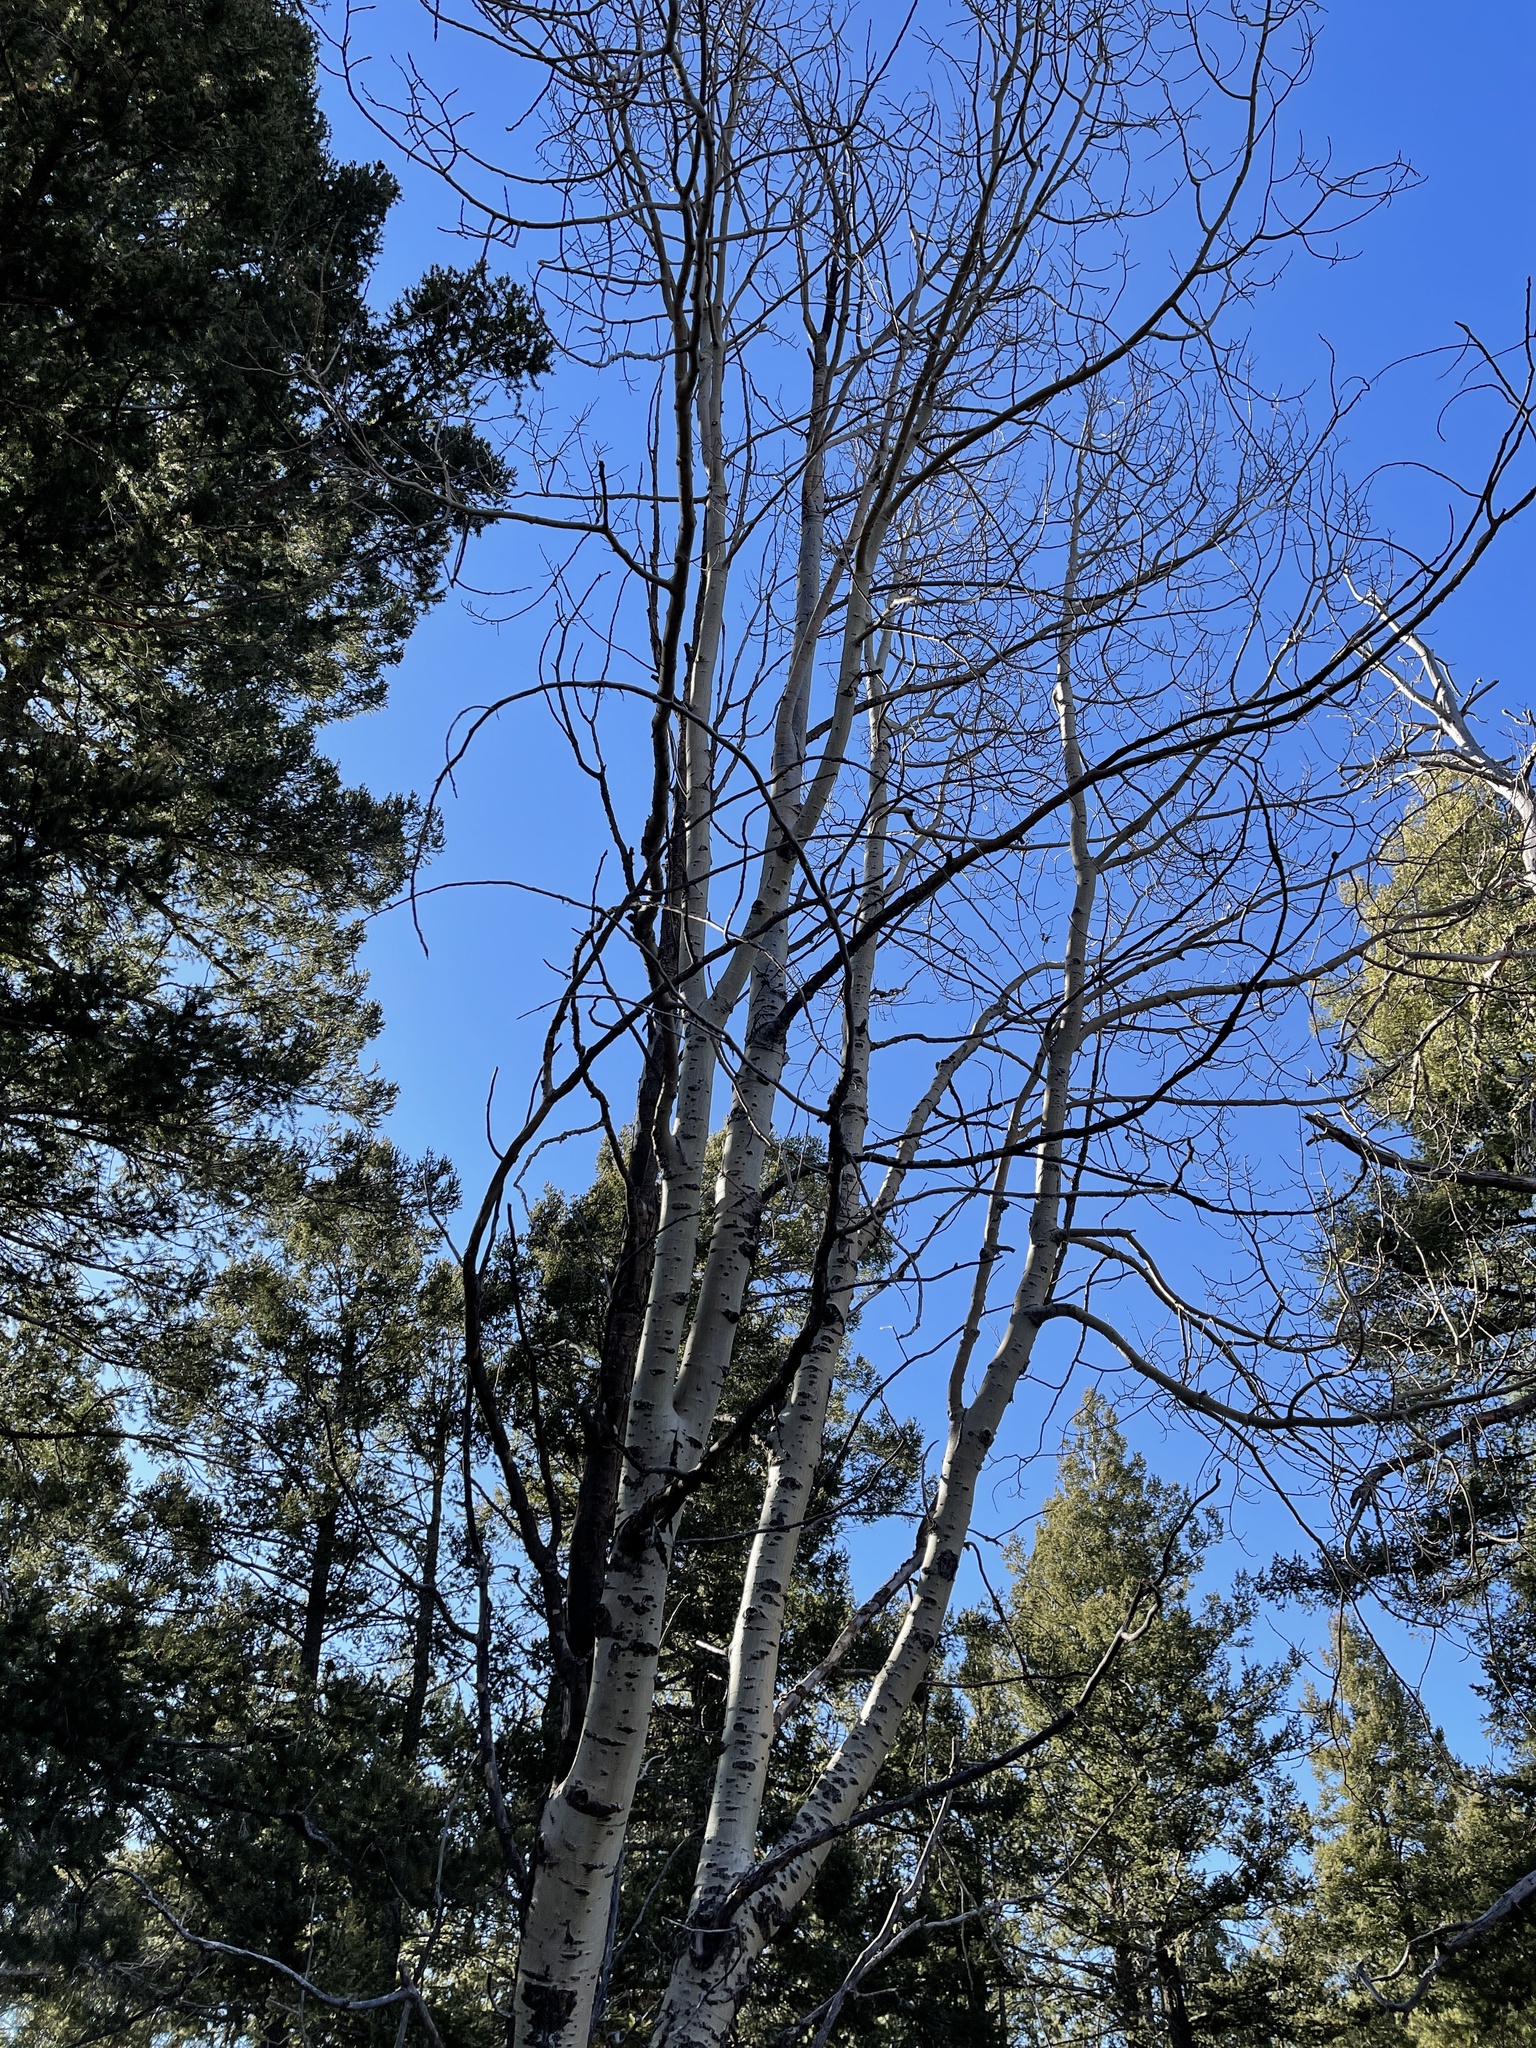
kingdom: Plantae
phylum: Tracheophyta
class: Magnoliopsida
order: Malpighiales
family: Salicaceae
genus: Populus
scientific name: Populus tremuloides
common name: Quaking aspen
